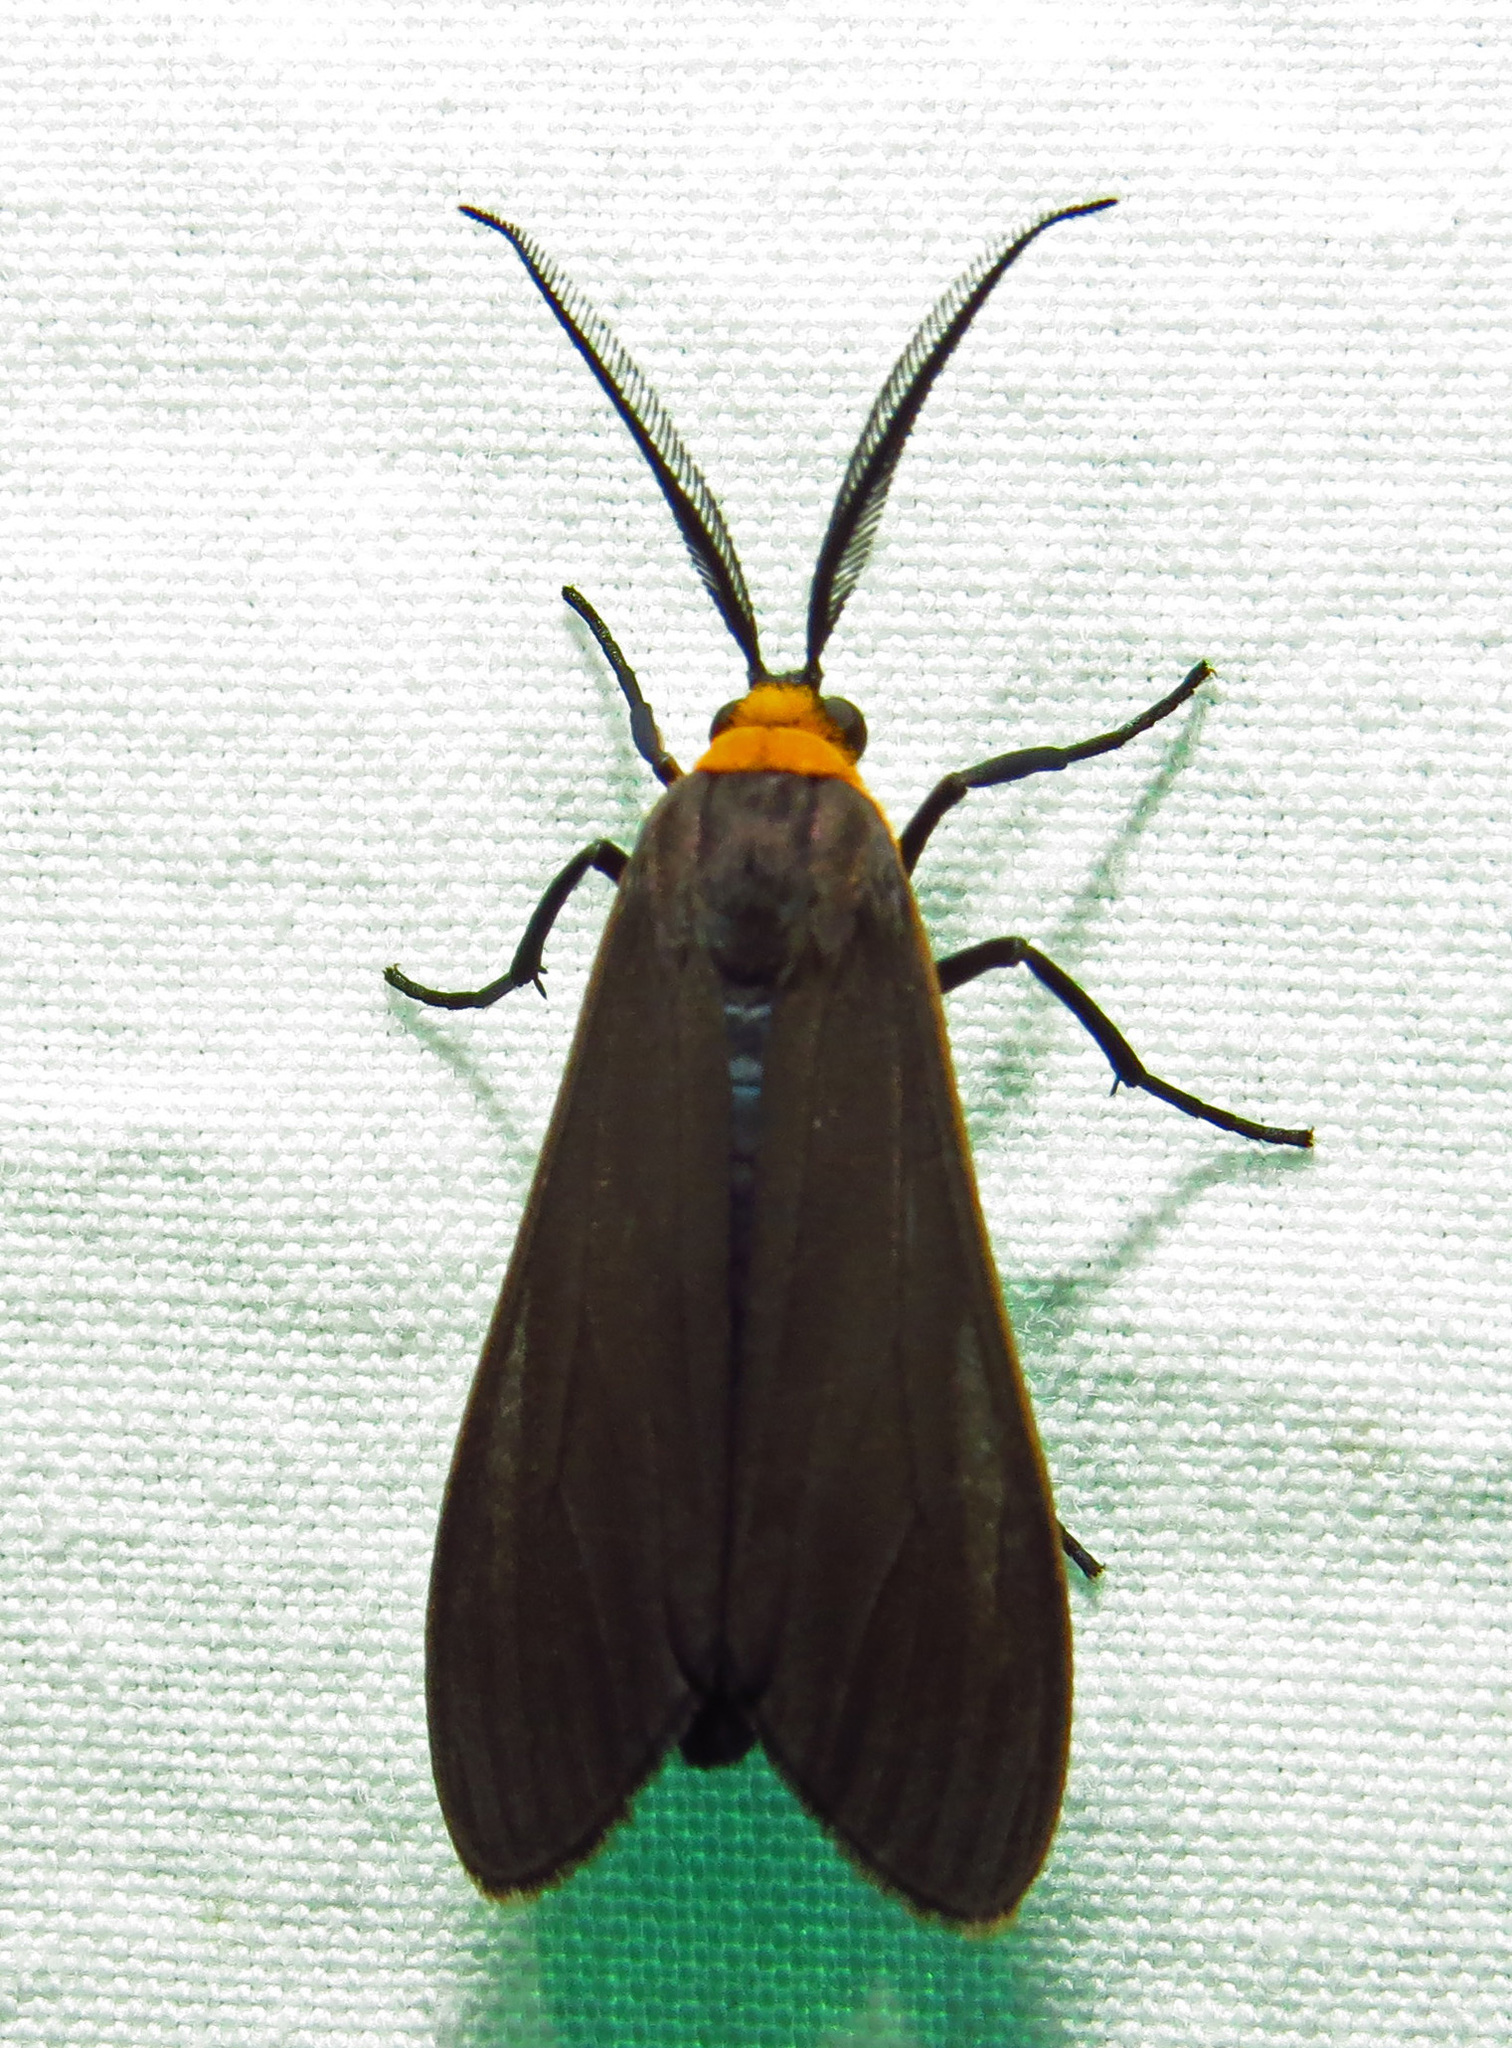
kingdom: Animalia
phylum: Arthropoda
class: Insecta
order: Lepidoptera
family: Erebidae
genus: Cisseps
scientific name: Cisseps fulvicollis
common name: Yellow-collared scape moth
